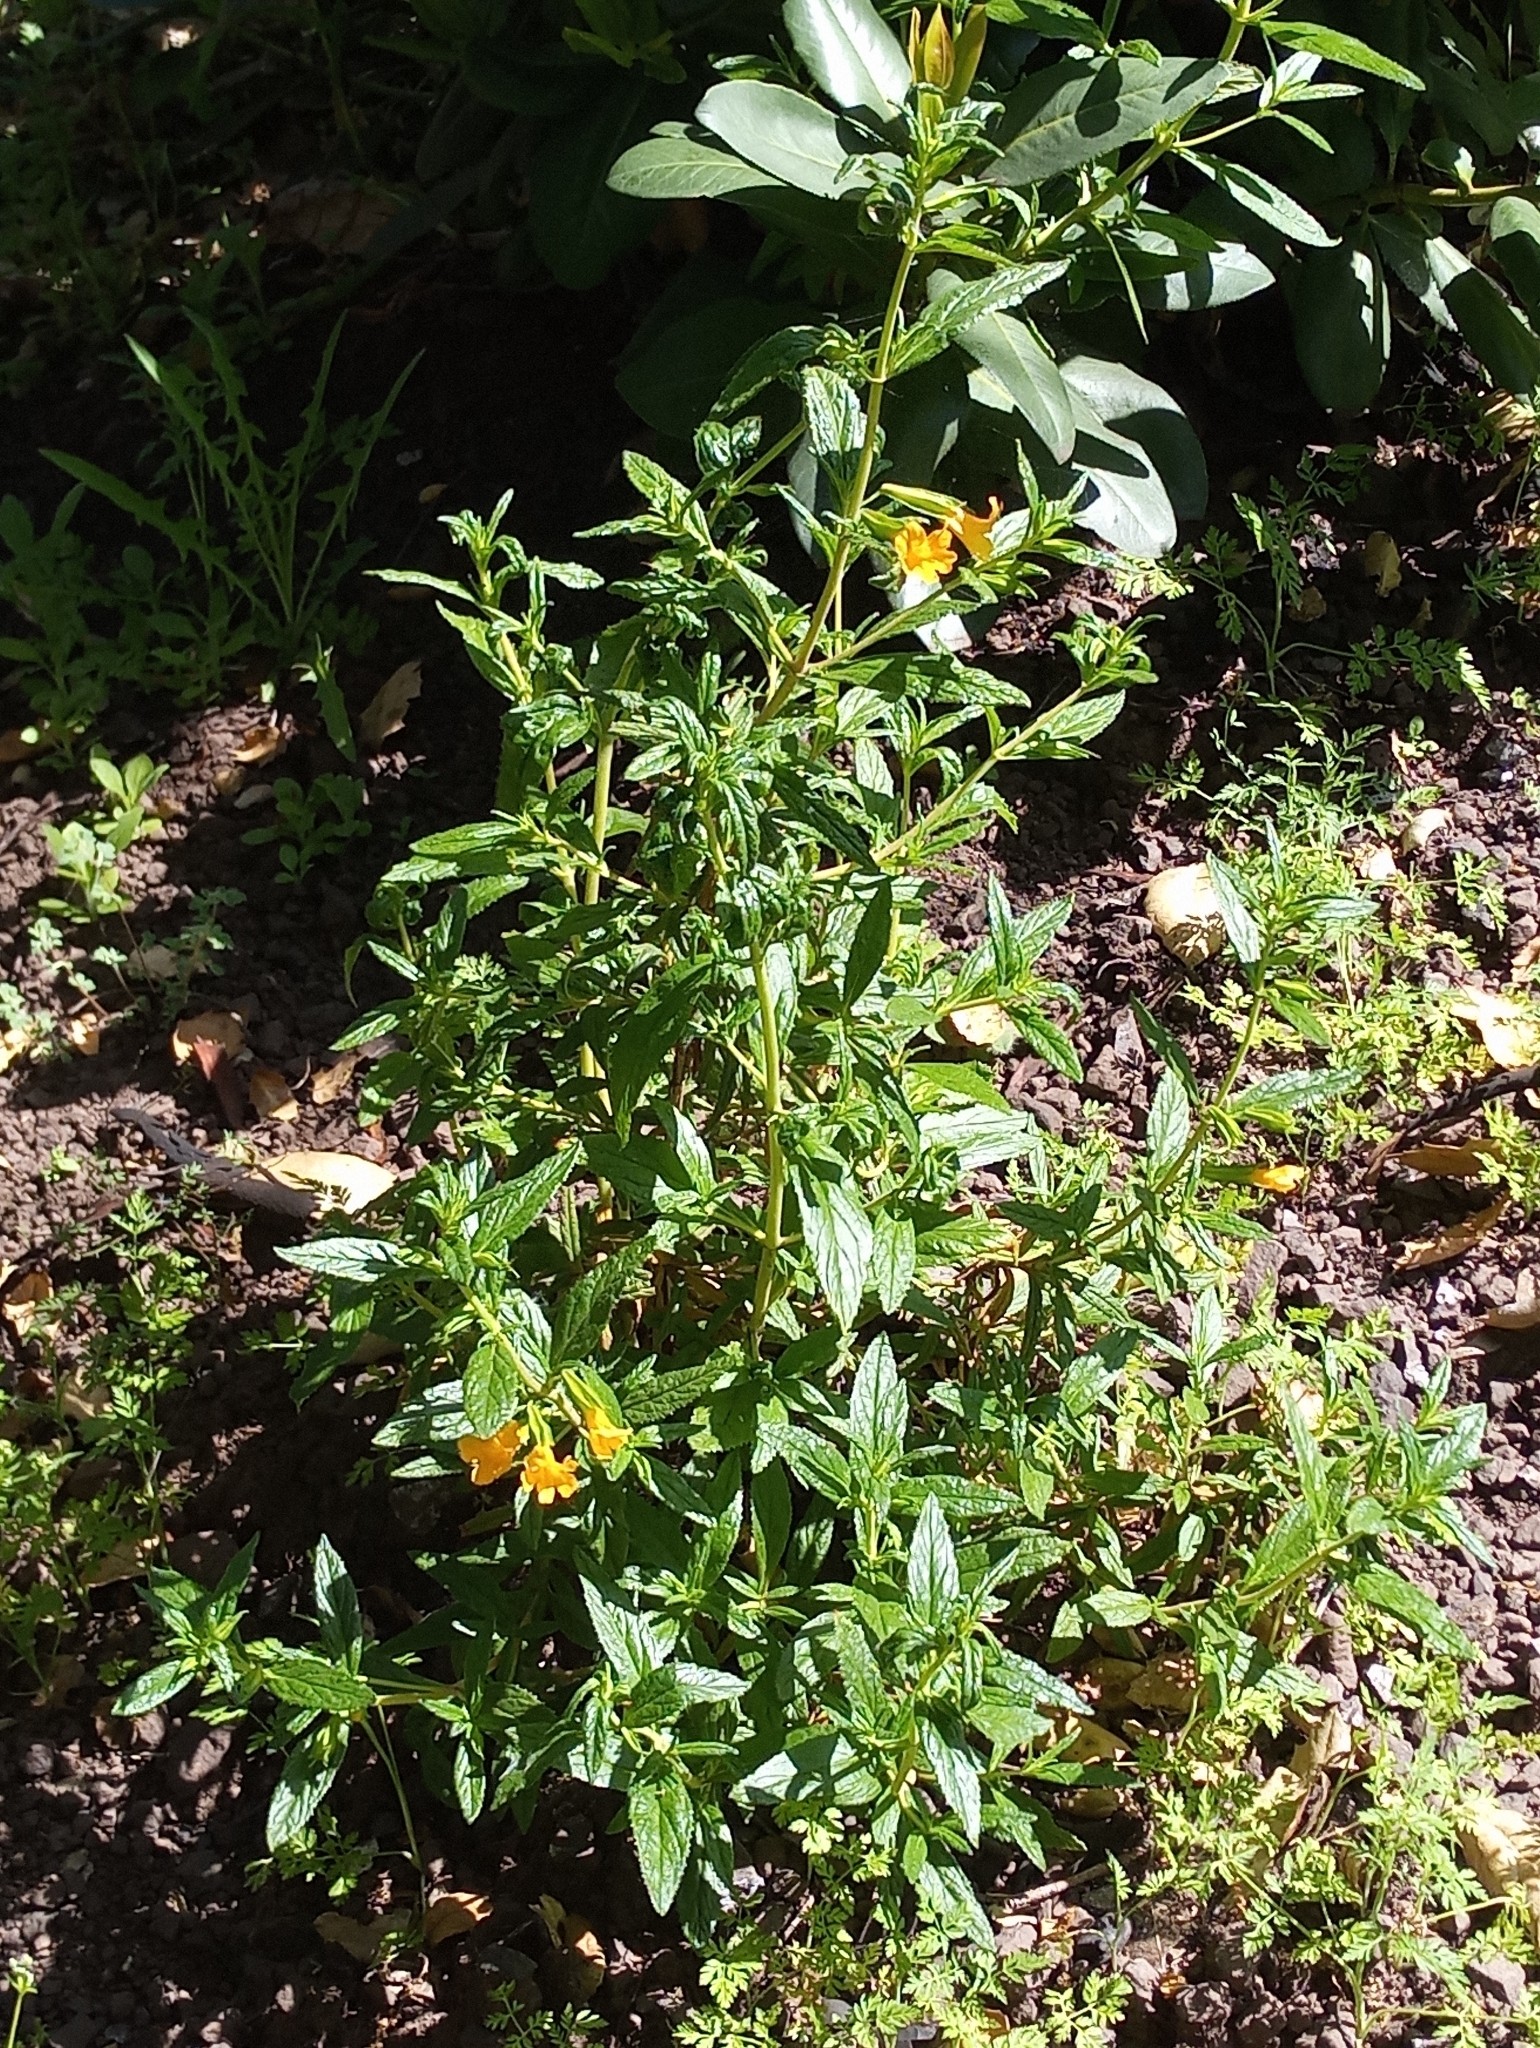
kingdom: Plantae
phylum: Tracheophyta
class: Magnoliopsida
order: Lamiales
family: Phrymaceae
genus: Diplacus
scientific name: Diplacus aurantiacus
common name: Bush monkey-flower
